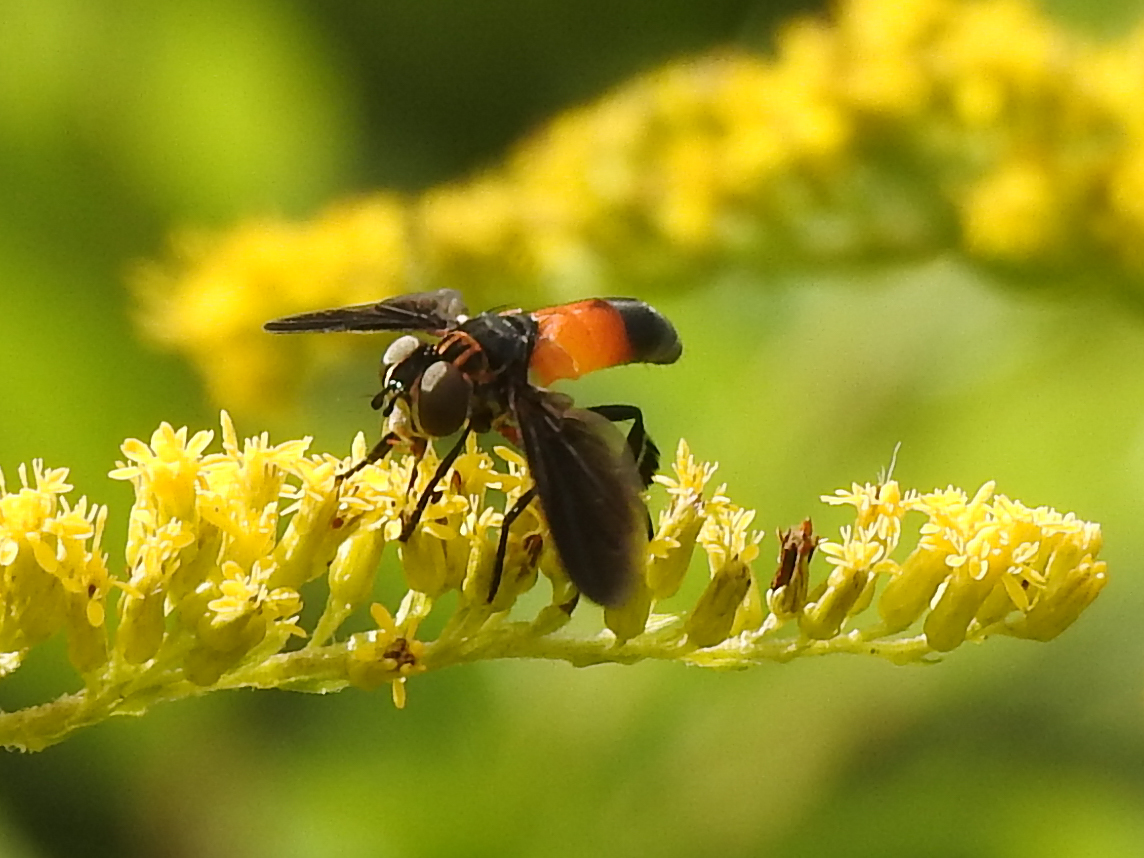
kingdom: Animalia
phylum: Arthropoda
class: Insecta
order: Diptera
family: Tachinidae
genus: Trichopoda
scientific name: Trichopoda pennipes
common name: Tachinid fly
